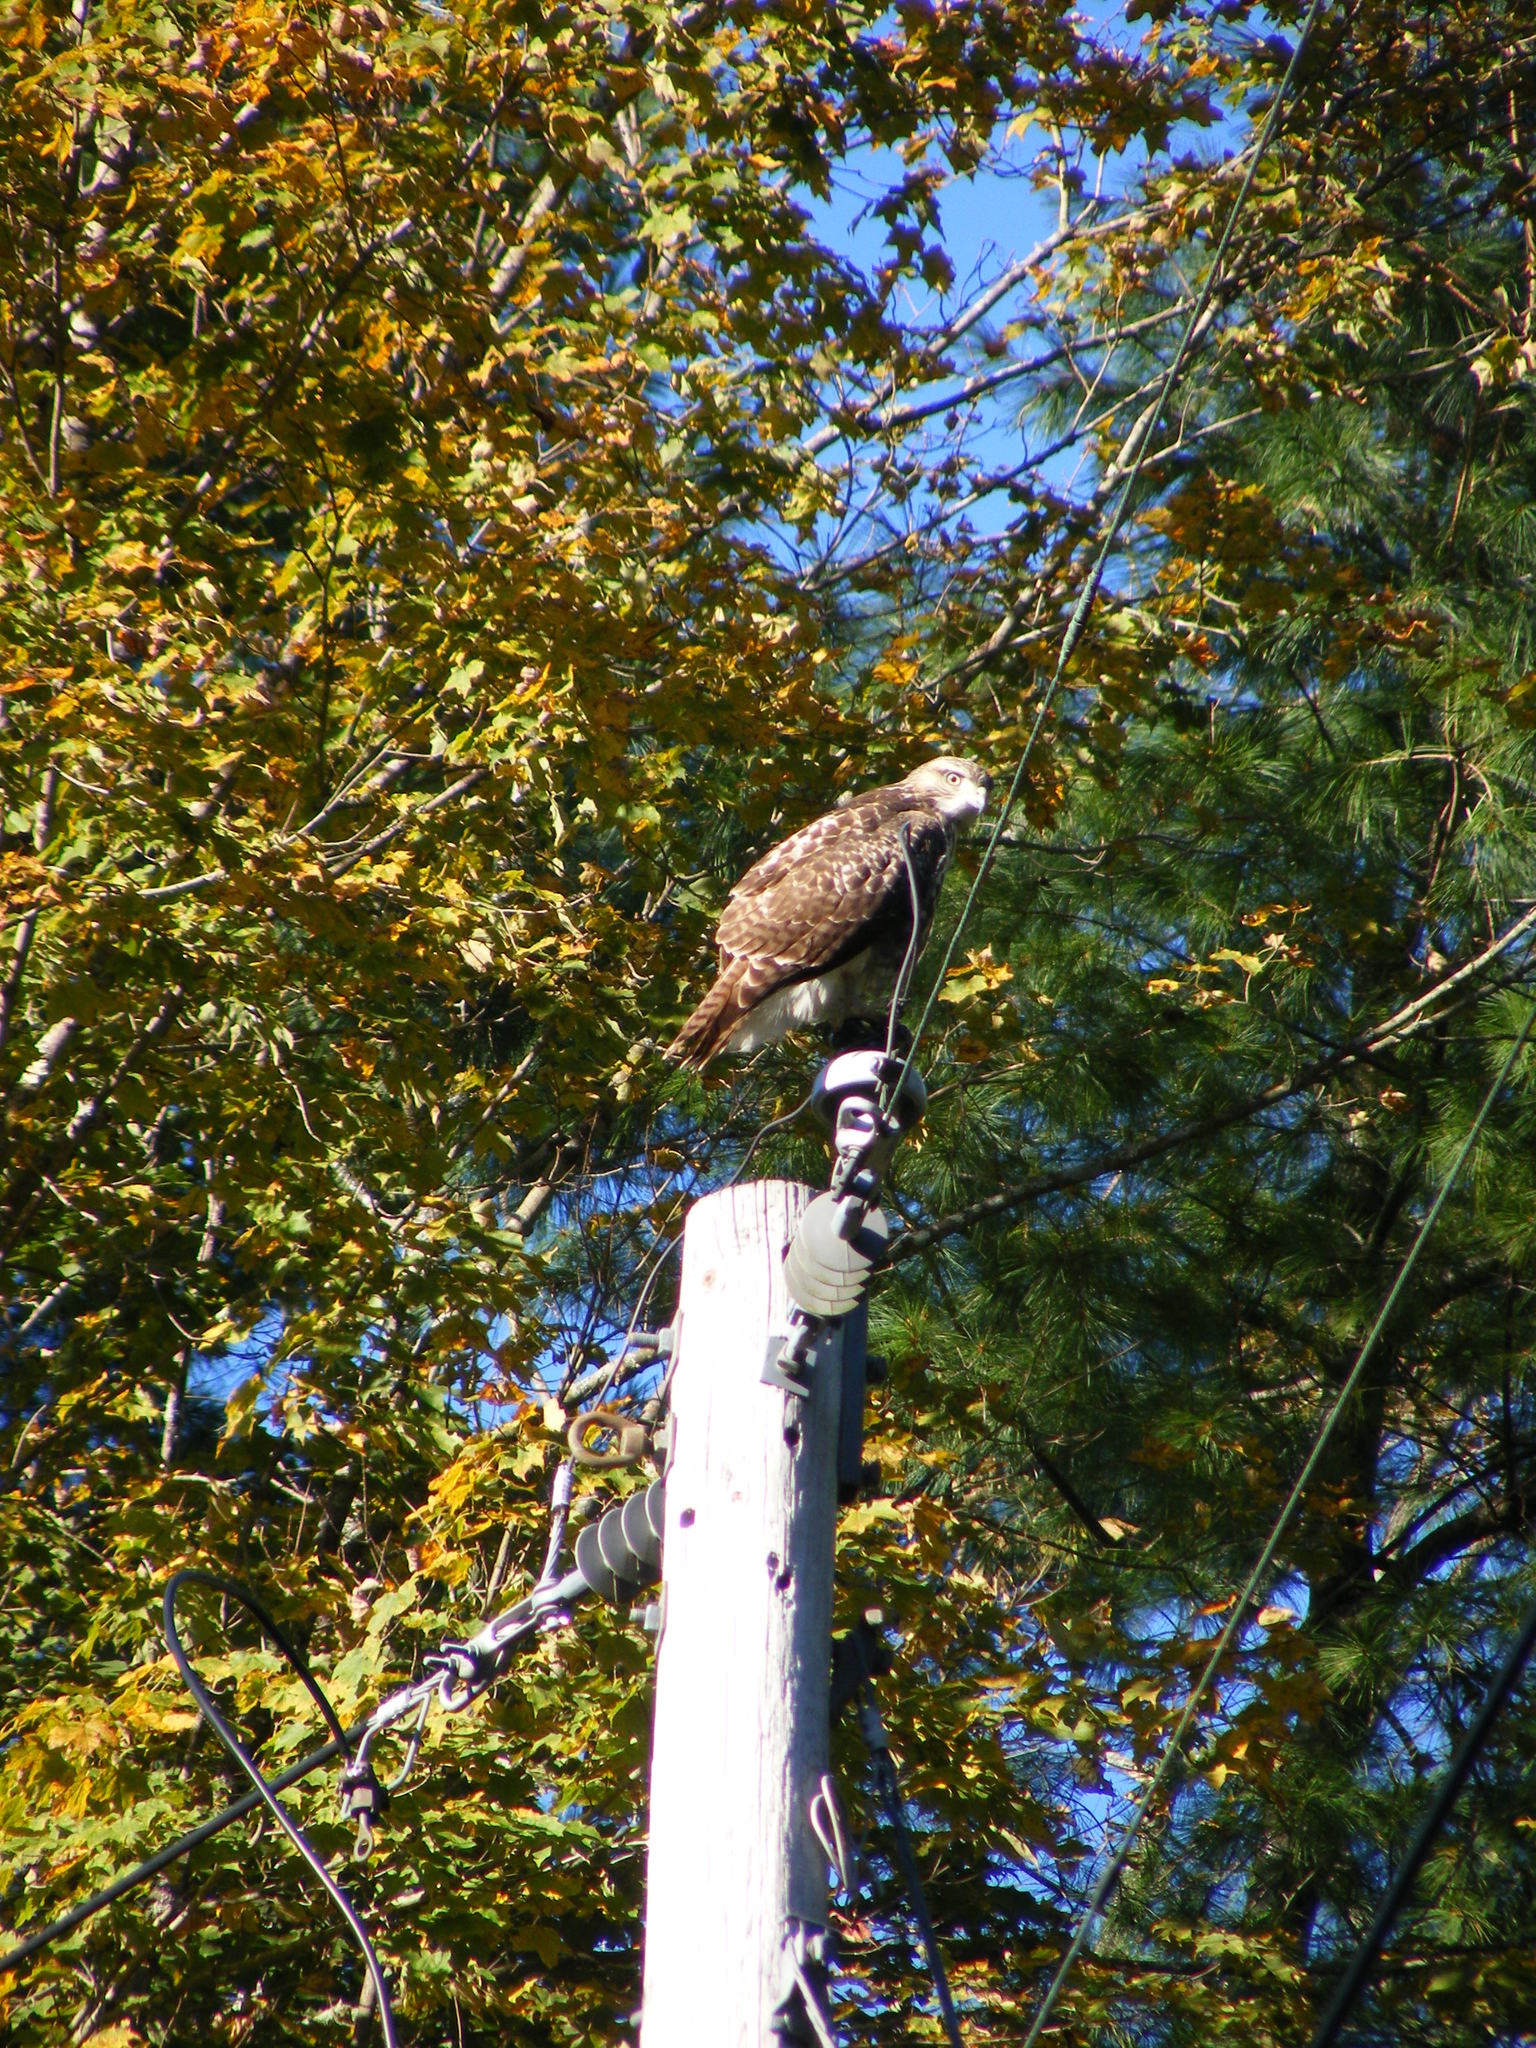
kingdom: Animalia
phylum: Chordata
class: Aves
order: Accipitriformes
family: Accipitridae
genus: Buteo
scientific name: Buteo jamaicensis
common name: Red-tailed hawk
